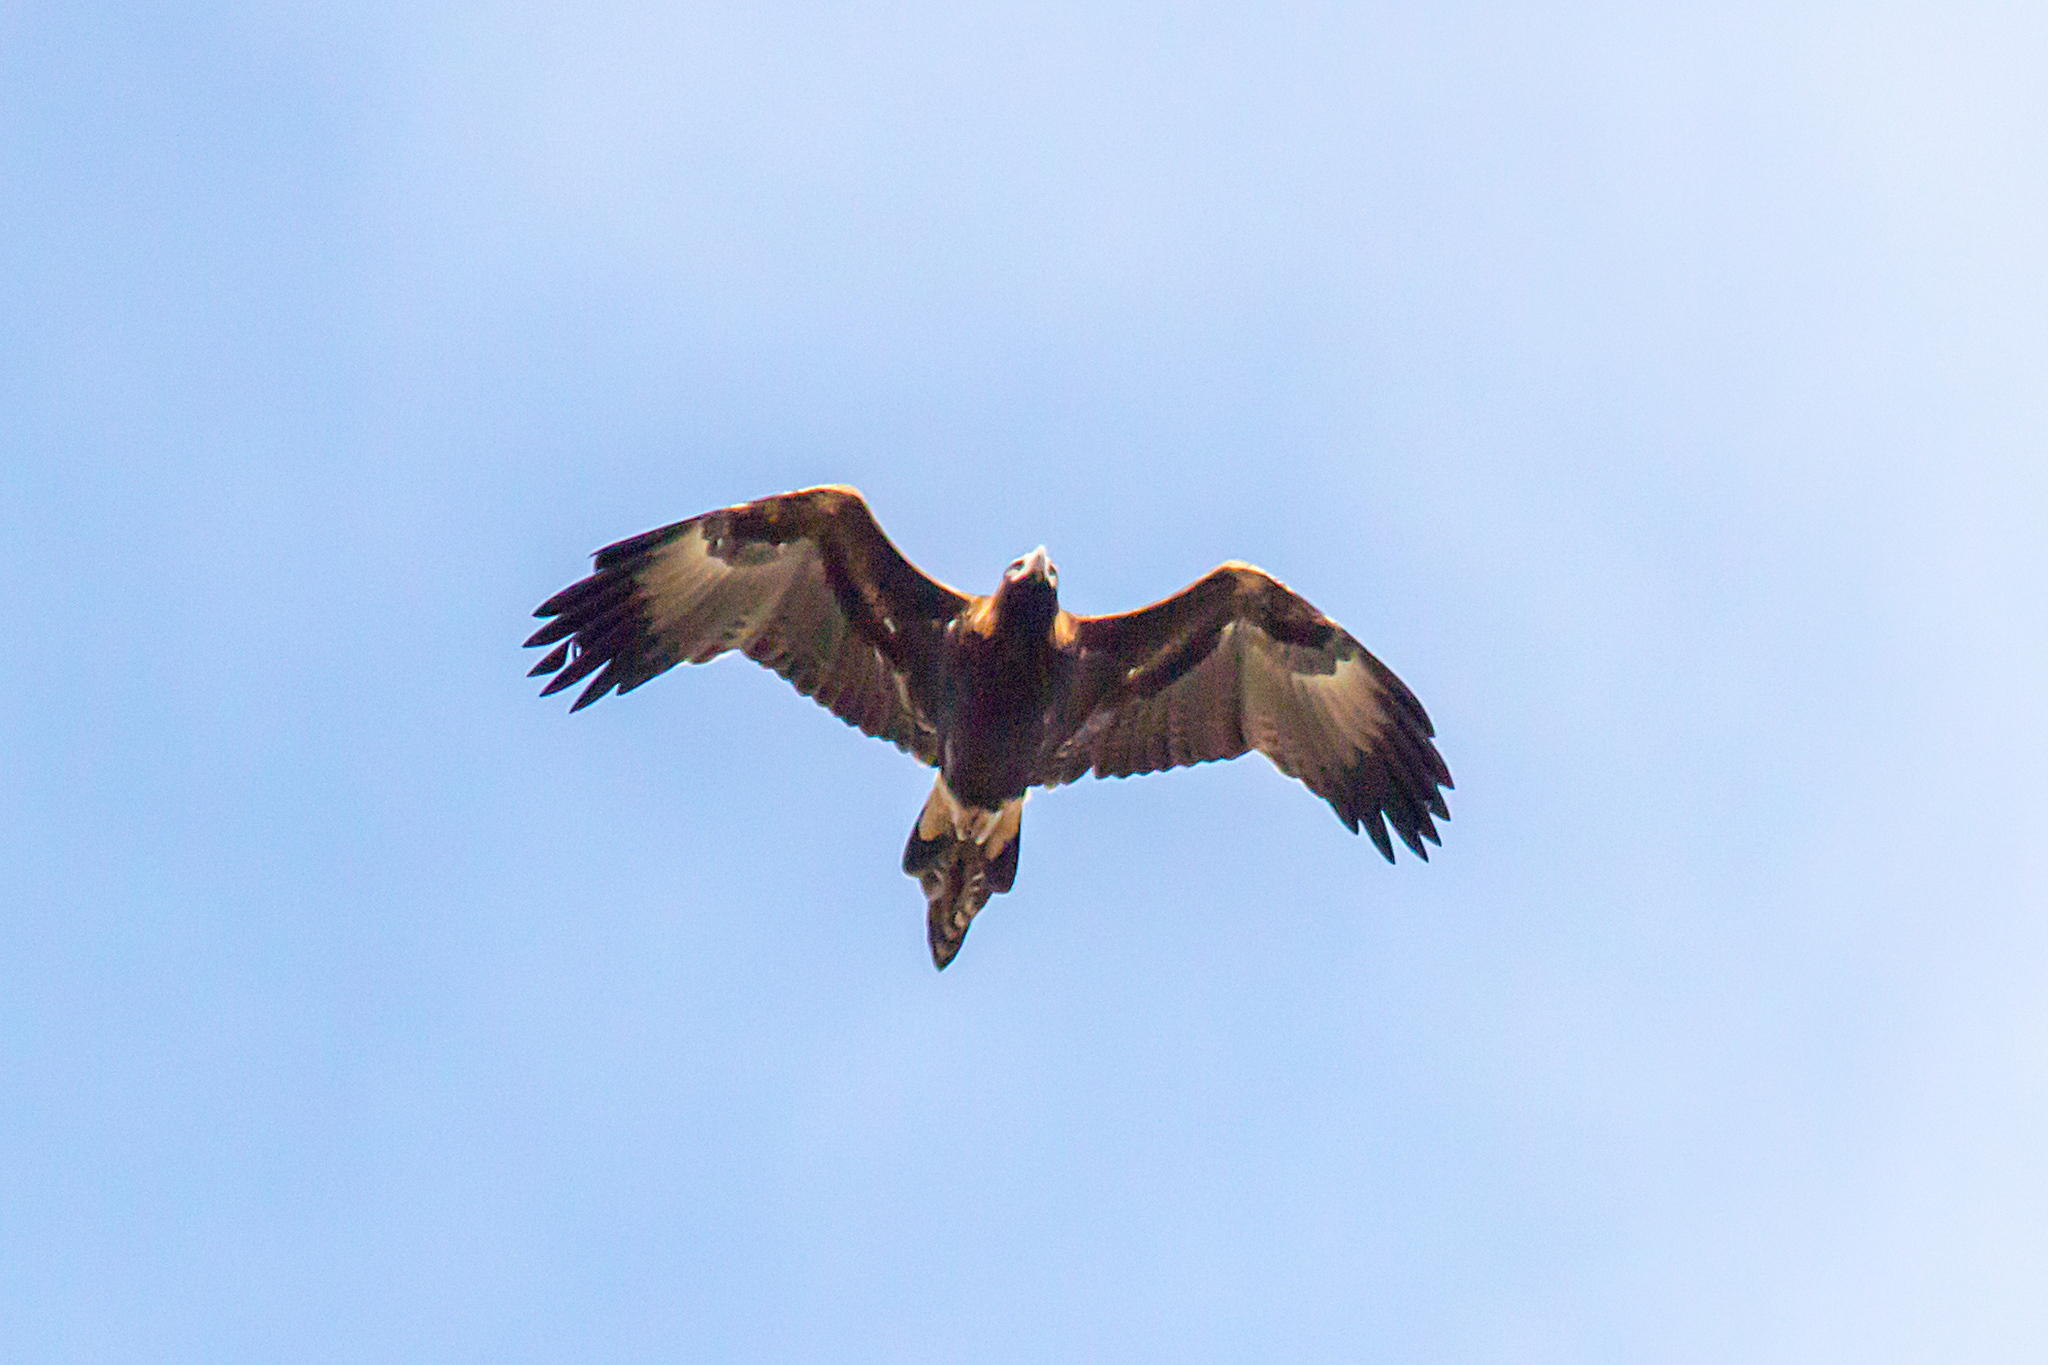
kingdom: Animalia
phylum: Chordata
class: Aves
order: Accipitriformes
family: Accipitridae
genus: Aquila
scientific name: Aquila audax
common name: Wedge-tailed eagle
